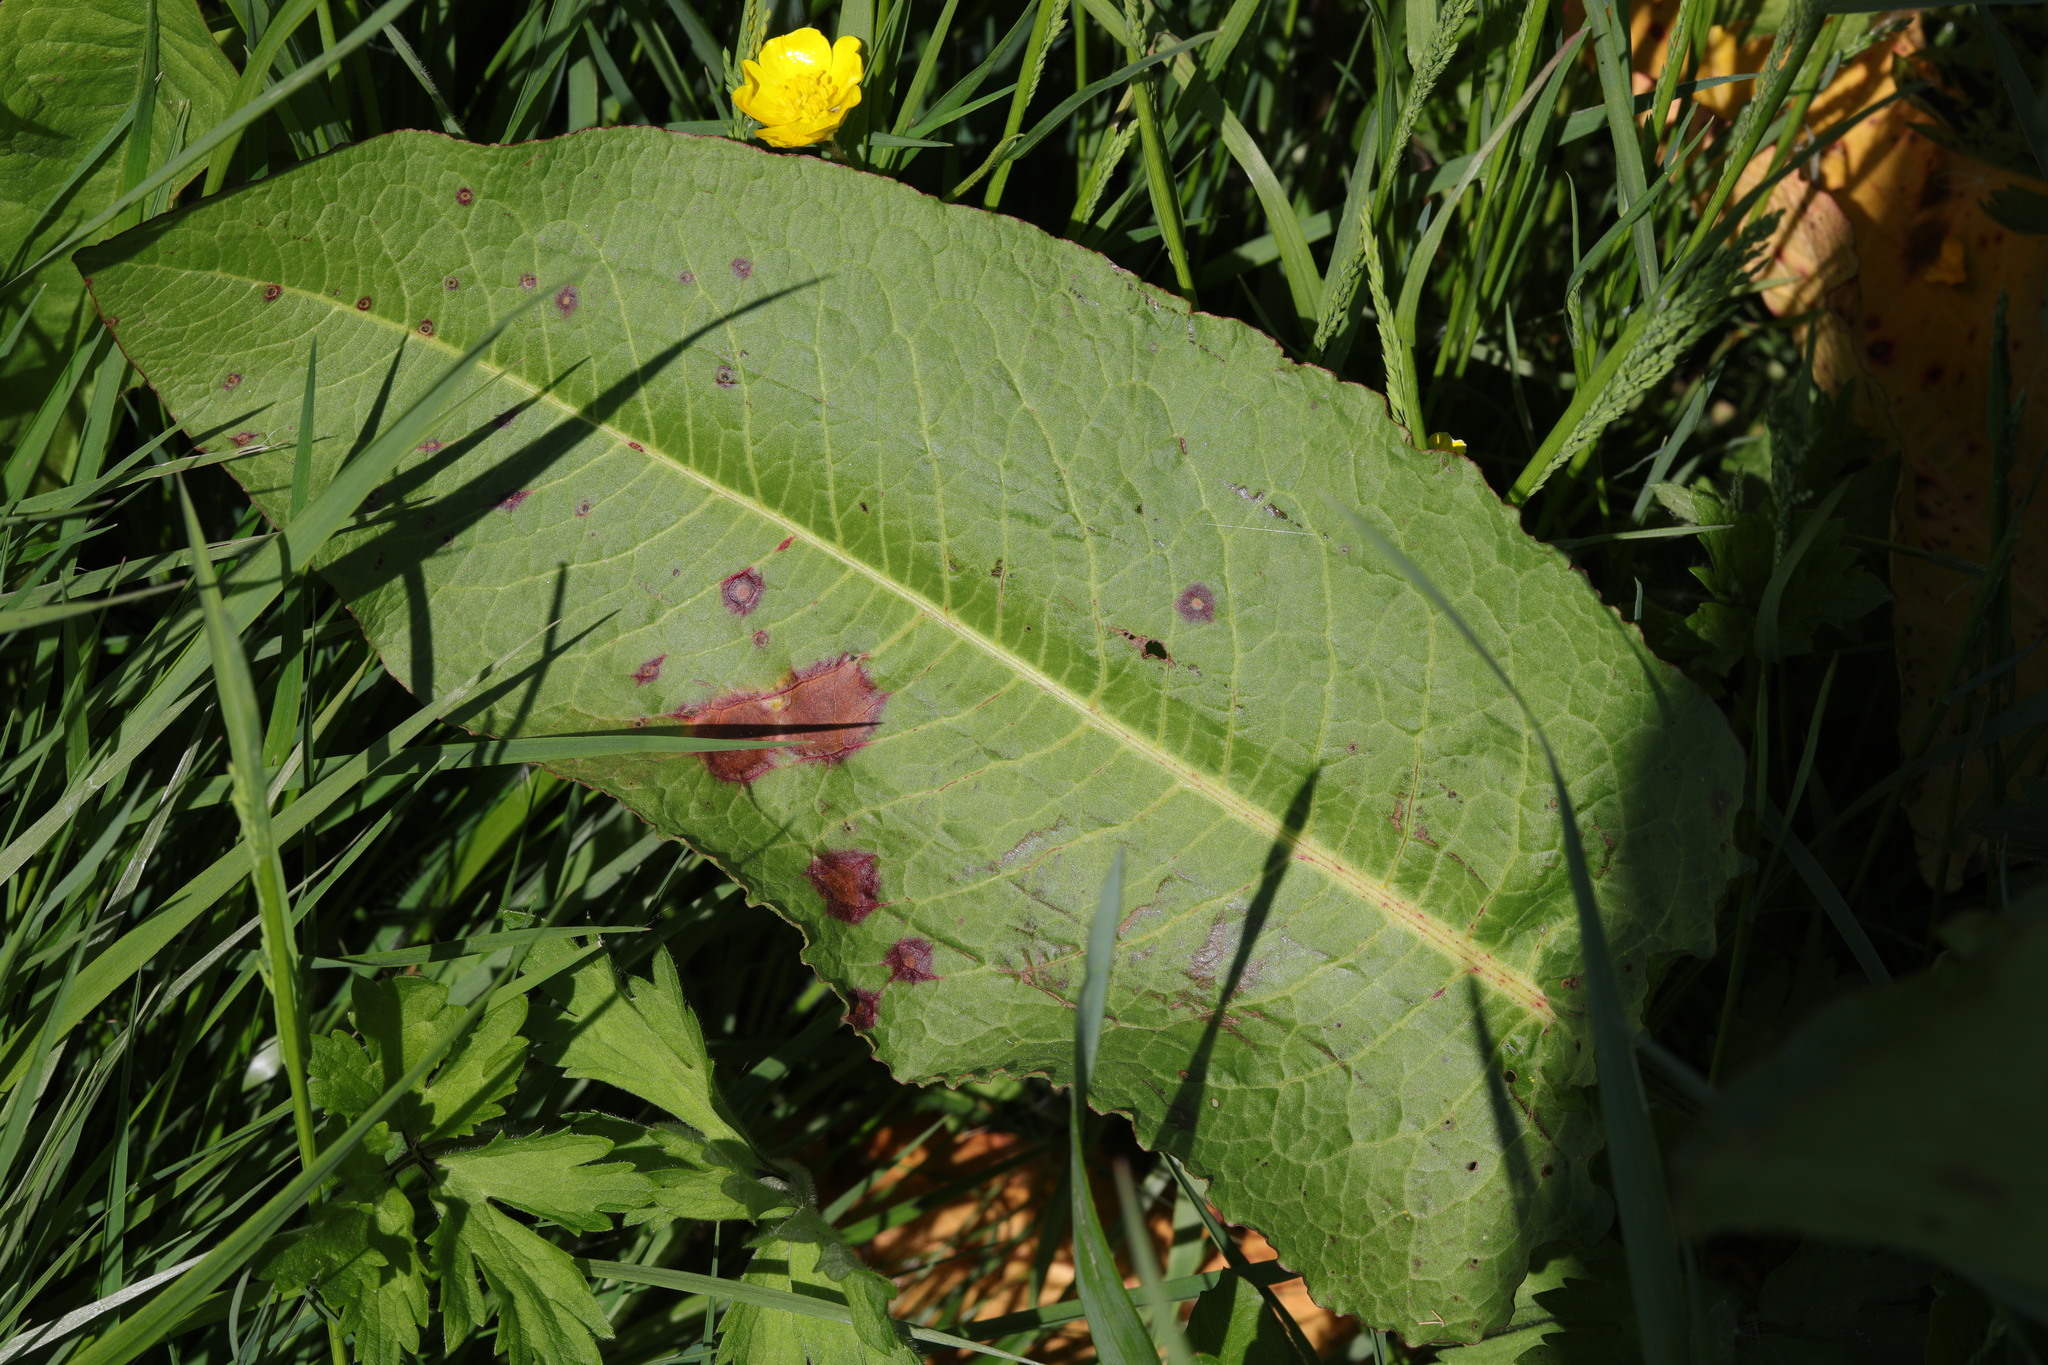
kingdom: Plantae
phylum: Tracheophyta
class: Magnoliopsida
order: Caryophyllales
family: Polygonaceae
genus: Rumex
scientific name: Rumex obtusifolius
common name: Bitter dock
